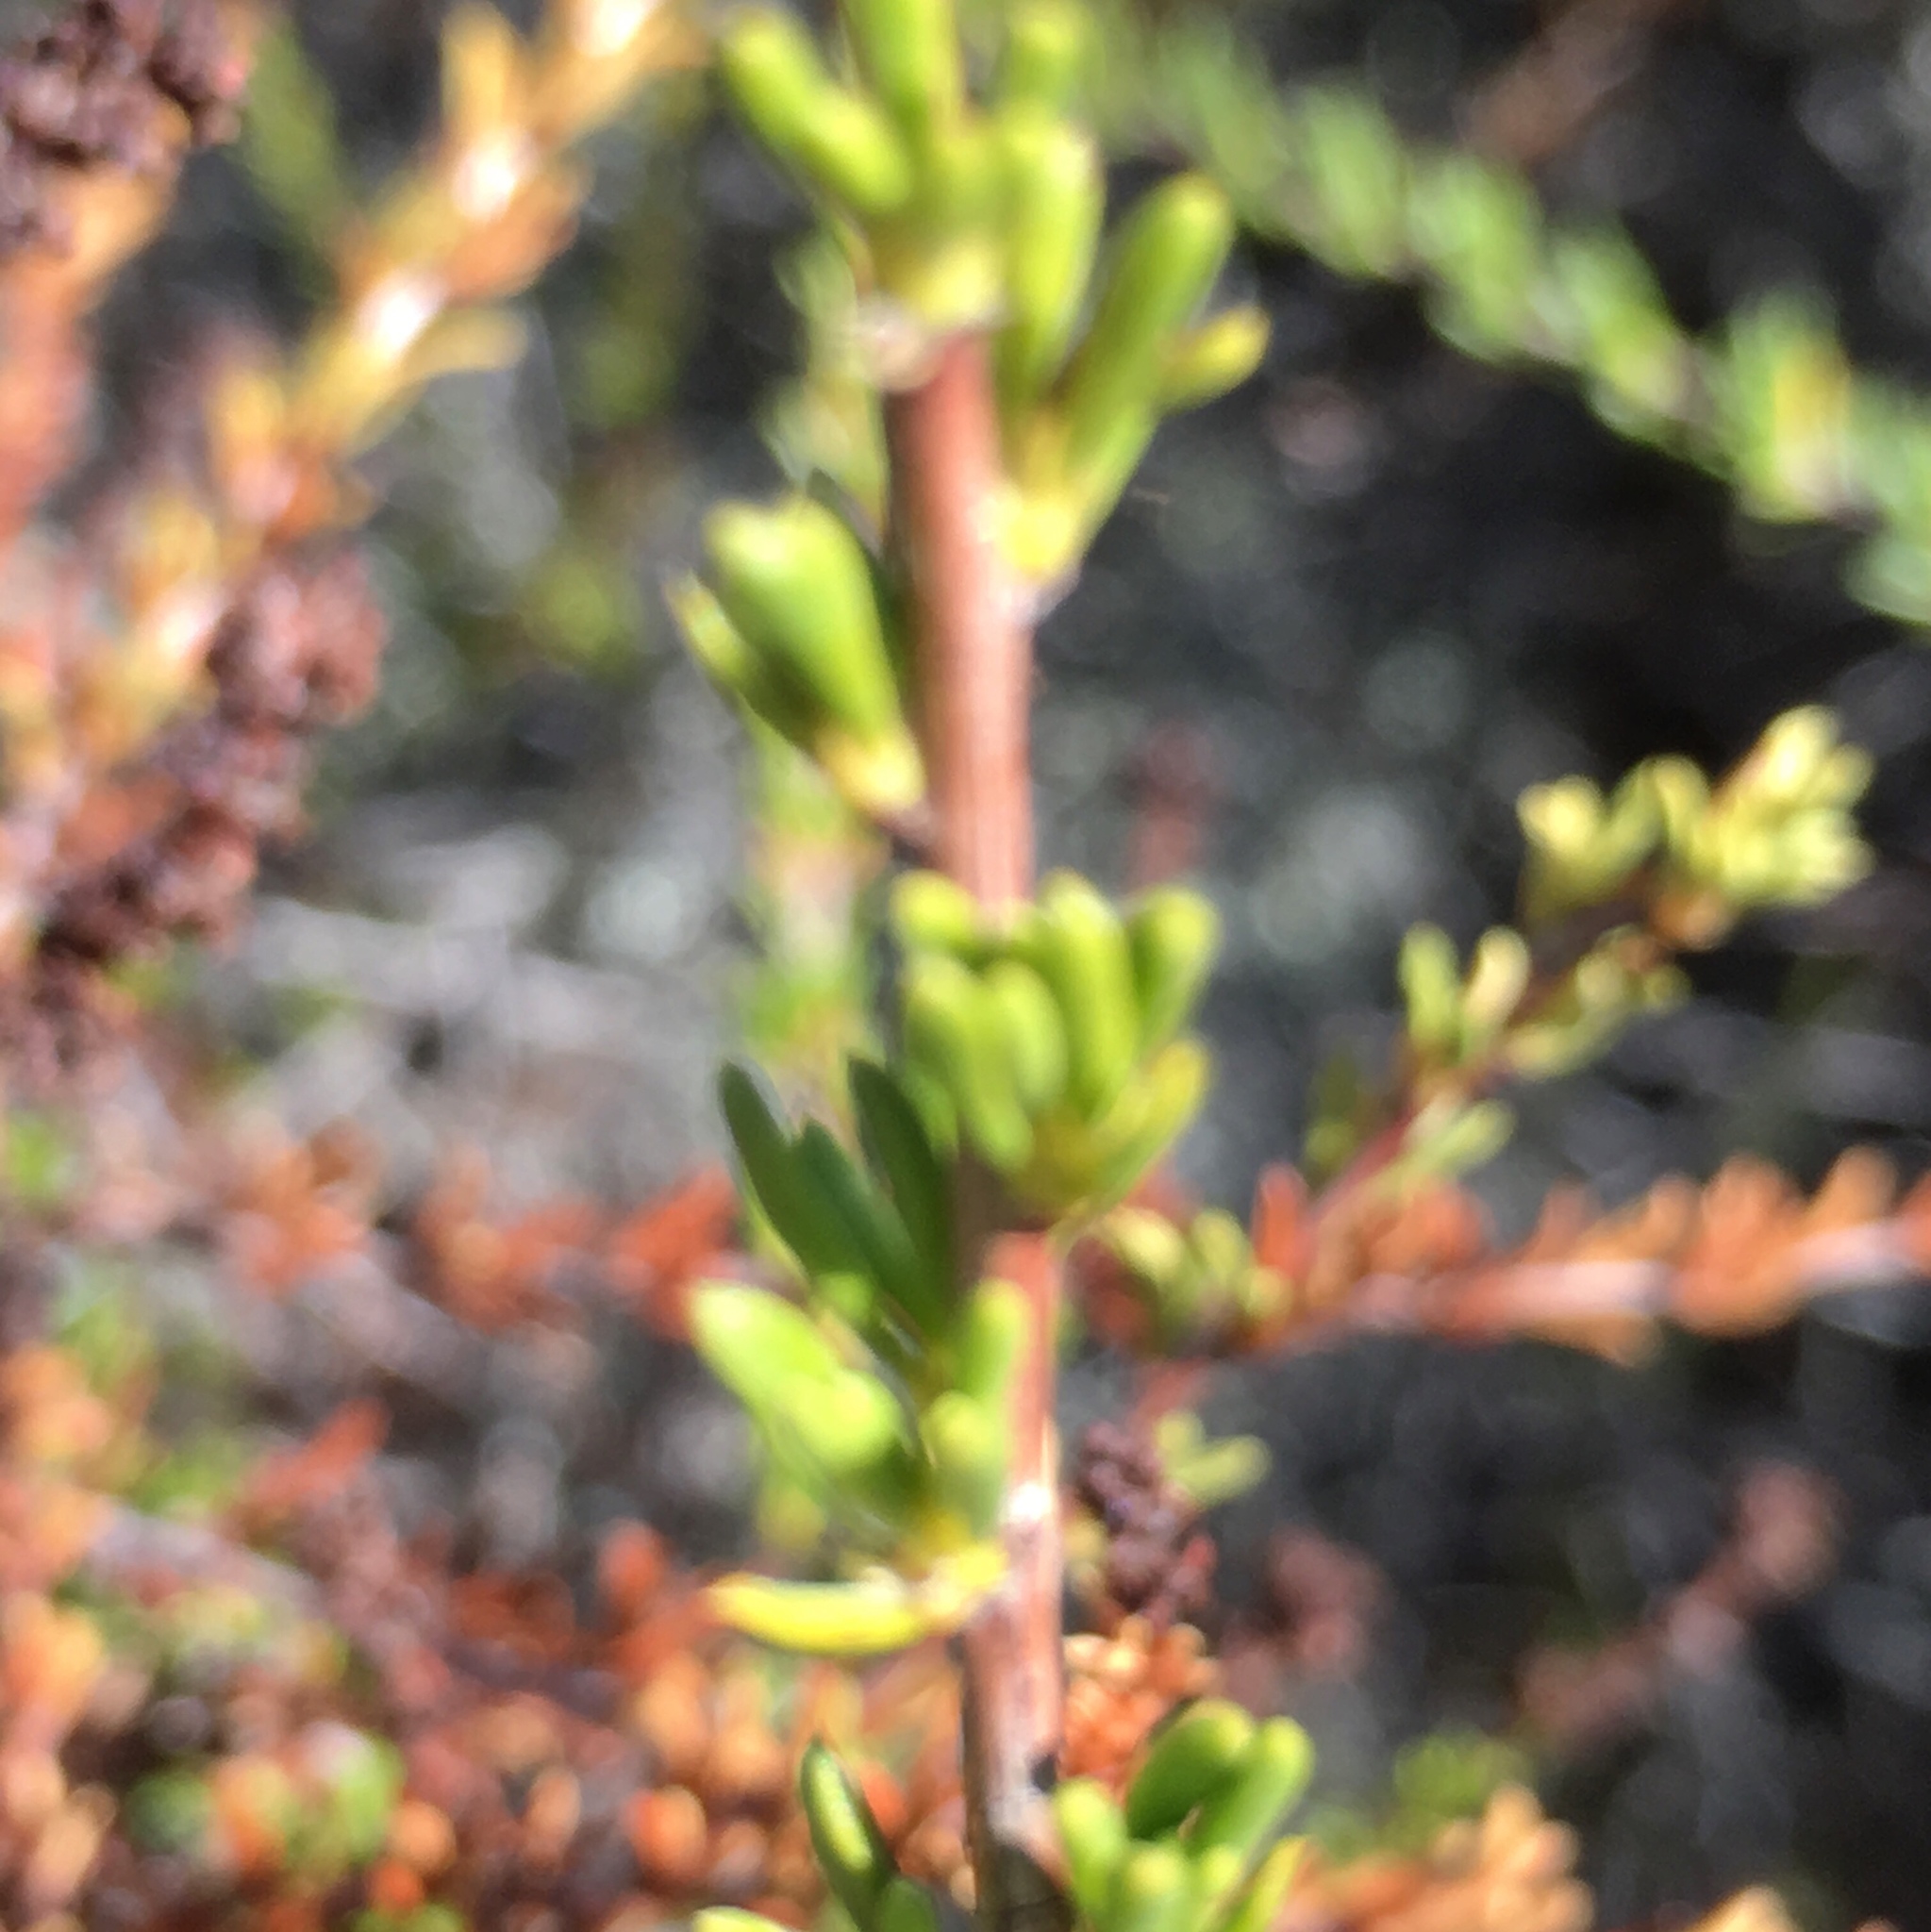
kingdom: Plantae
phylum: Tracheophyta
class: Magnoliopsida
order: Rosales
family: Rosaceae
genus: Adenostoma
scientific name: Adenostoma fasciculatum
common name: Chamise
